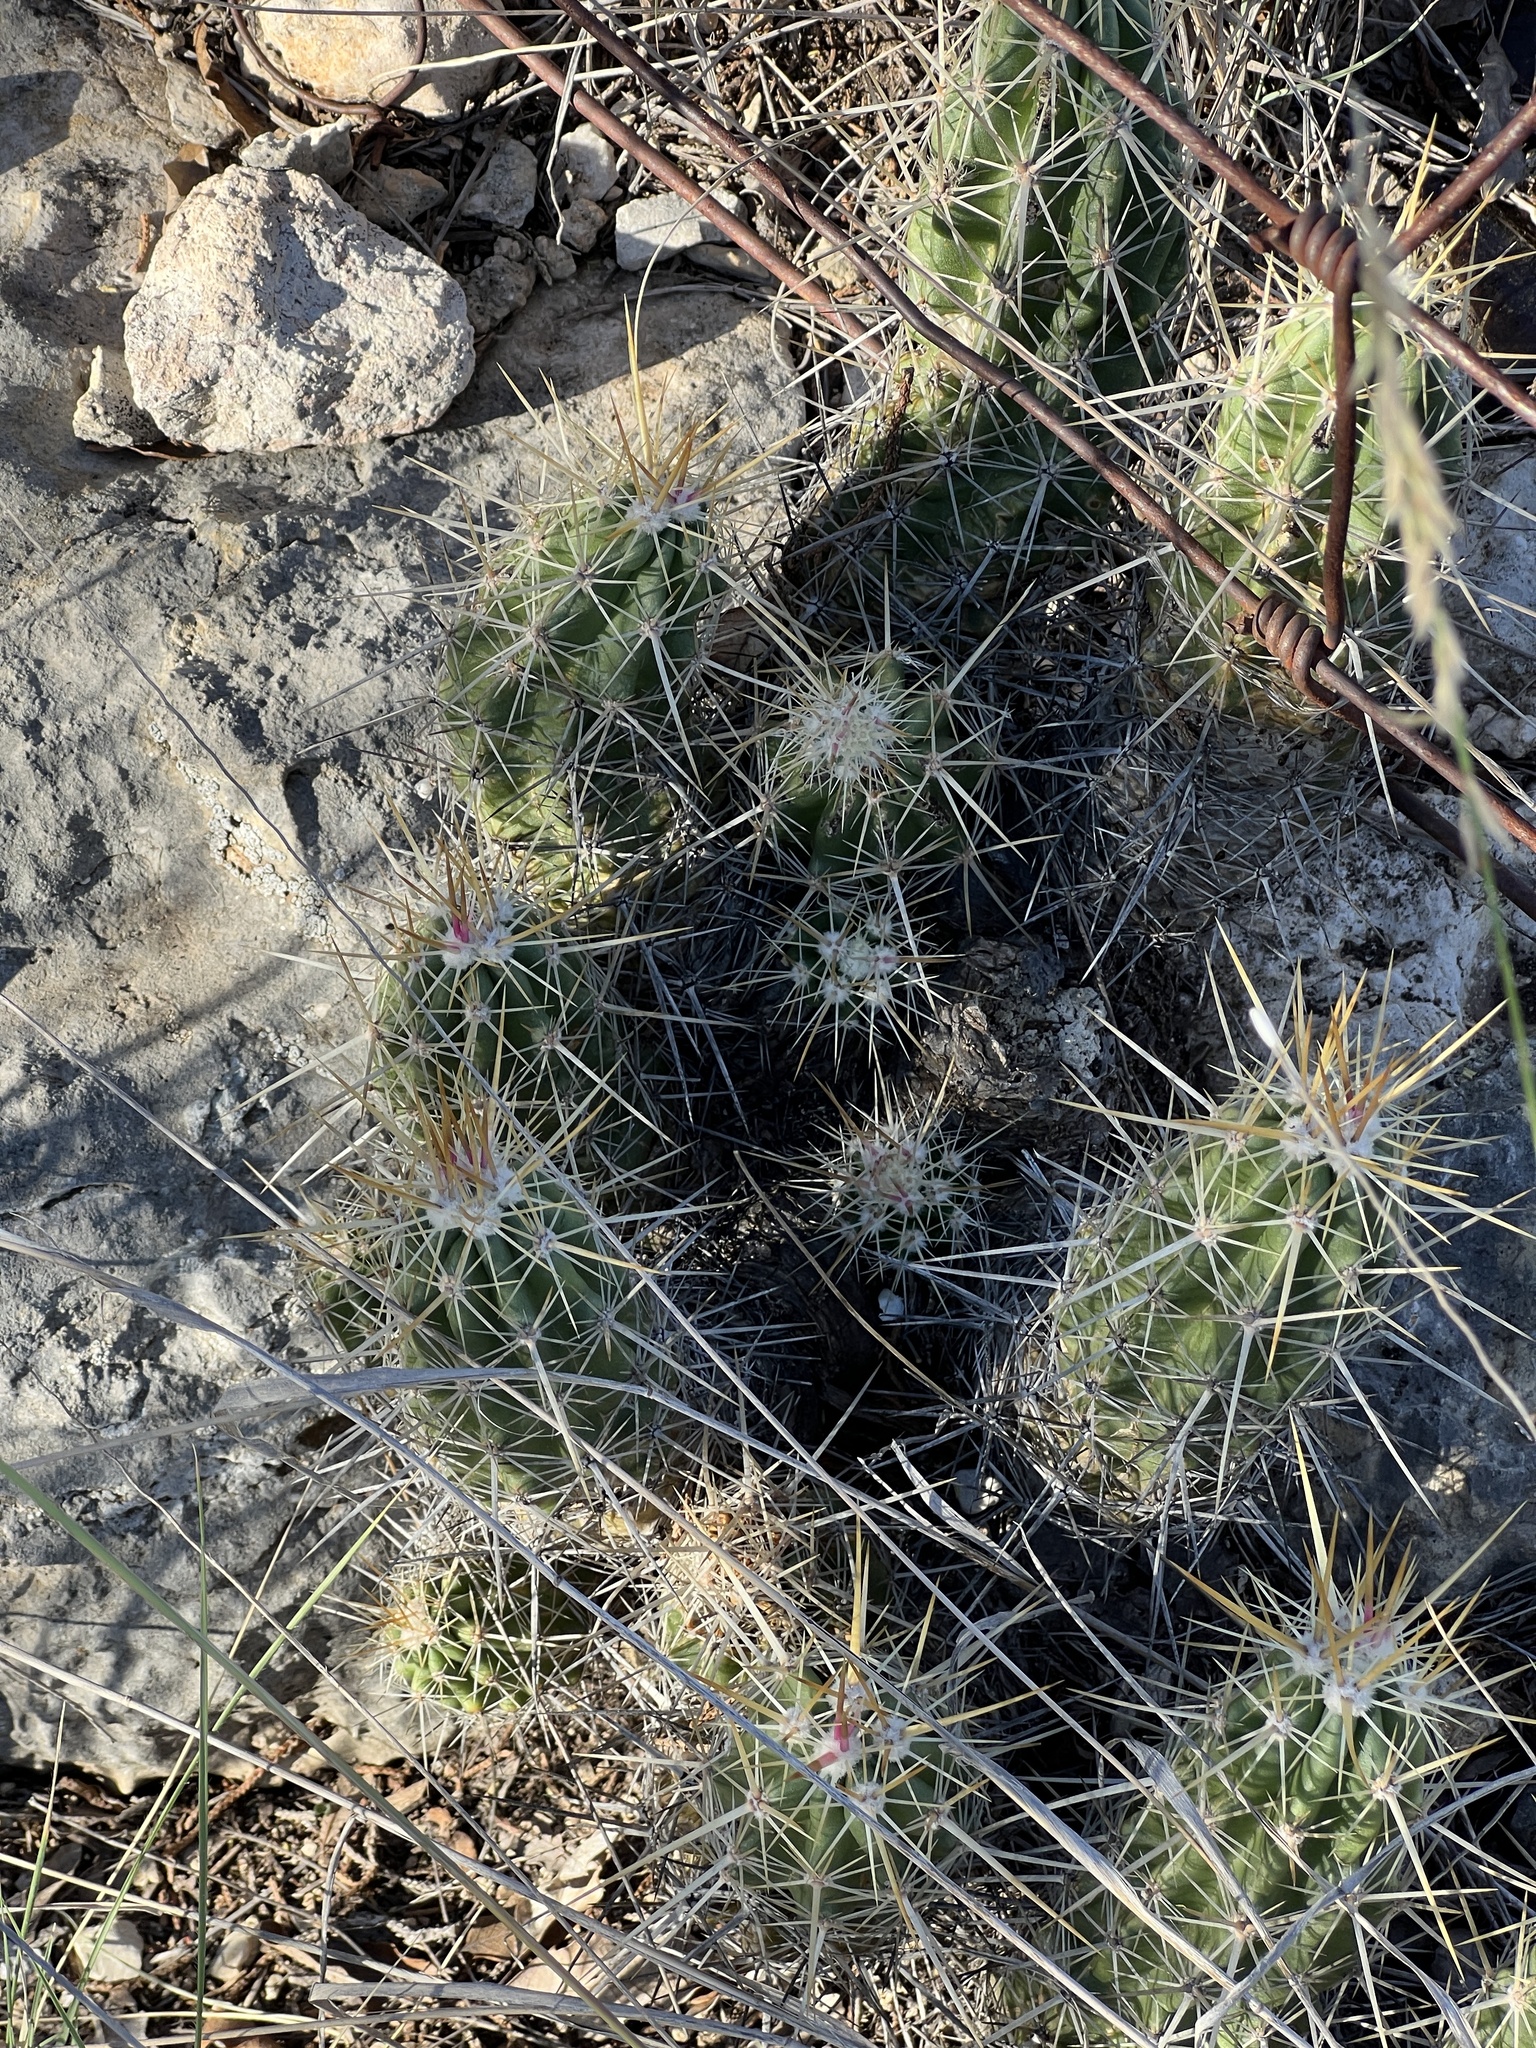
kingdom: Plantae
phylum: Tracheophyta
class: Magnoliopsida
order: Caryophyllales
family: Cactaceae
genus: Echinocereus
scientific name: Echinocereus enneacanthus
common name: Pitaya
